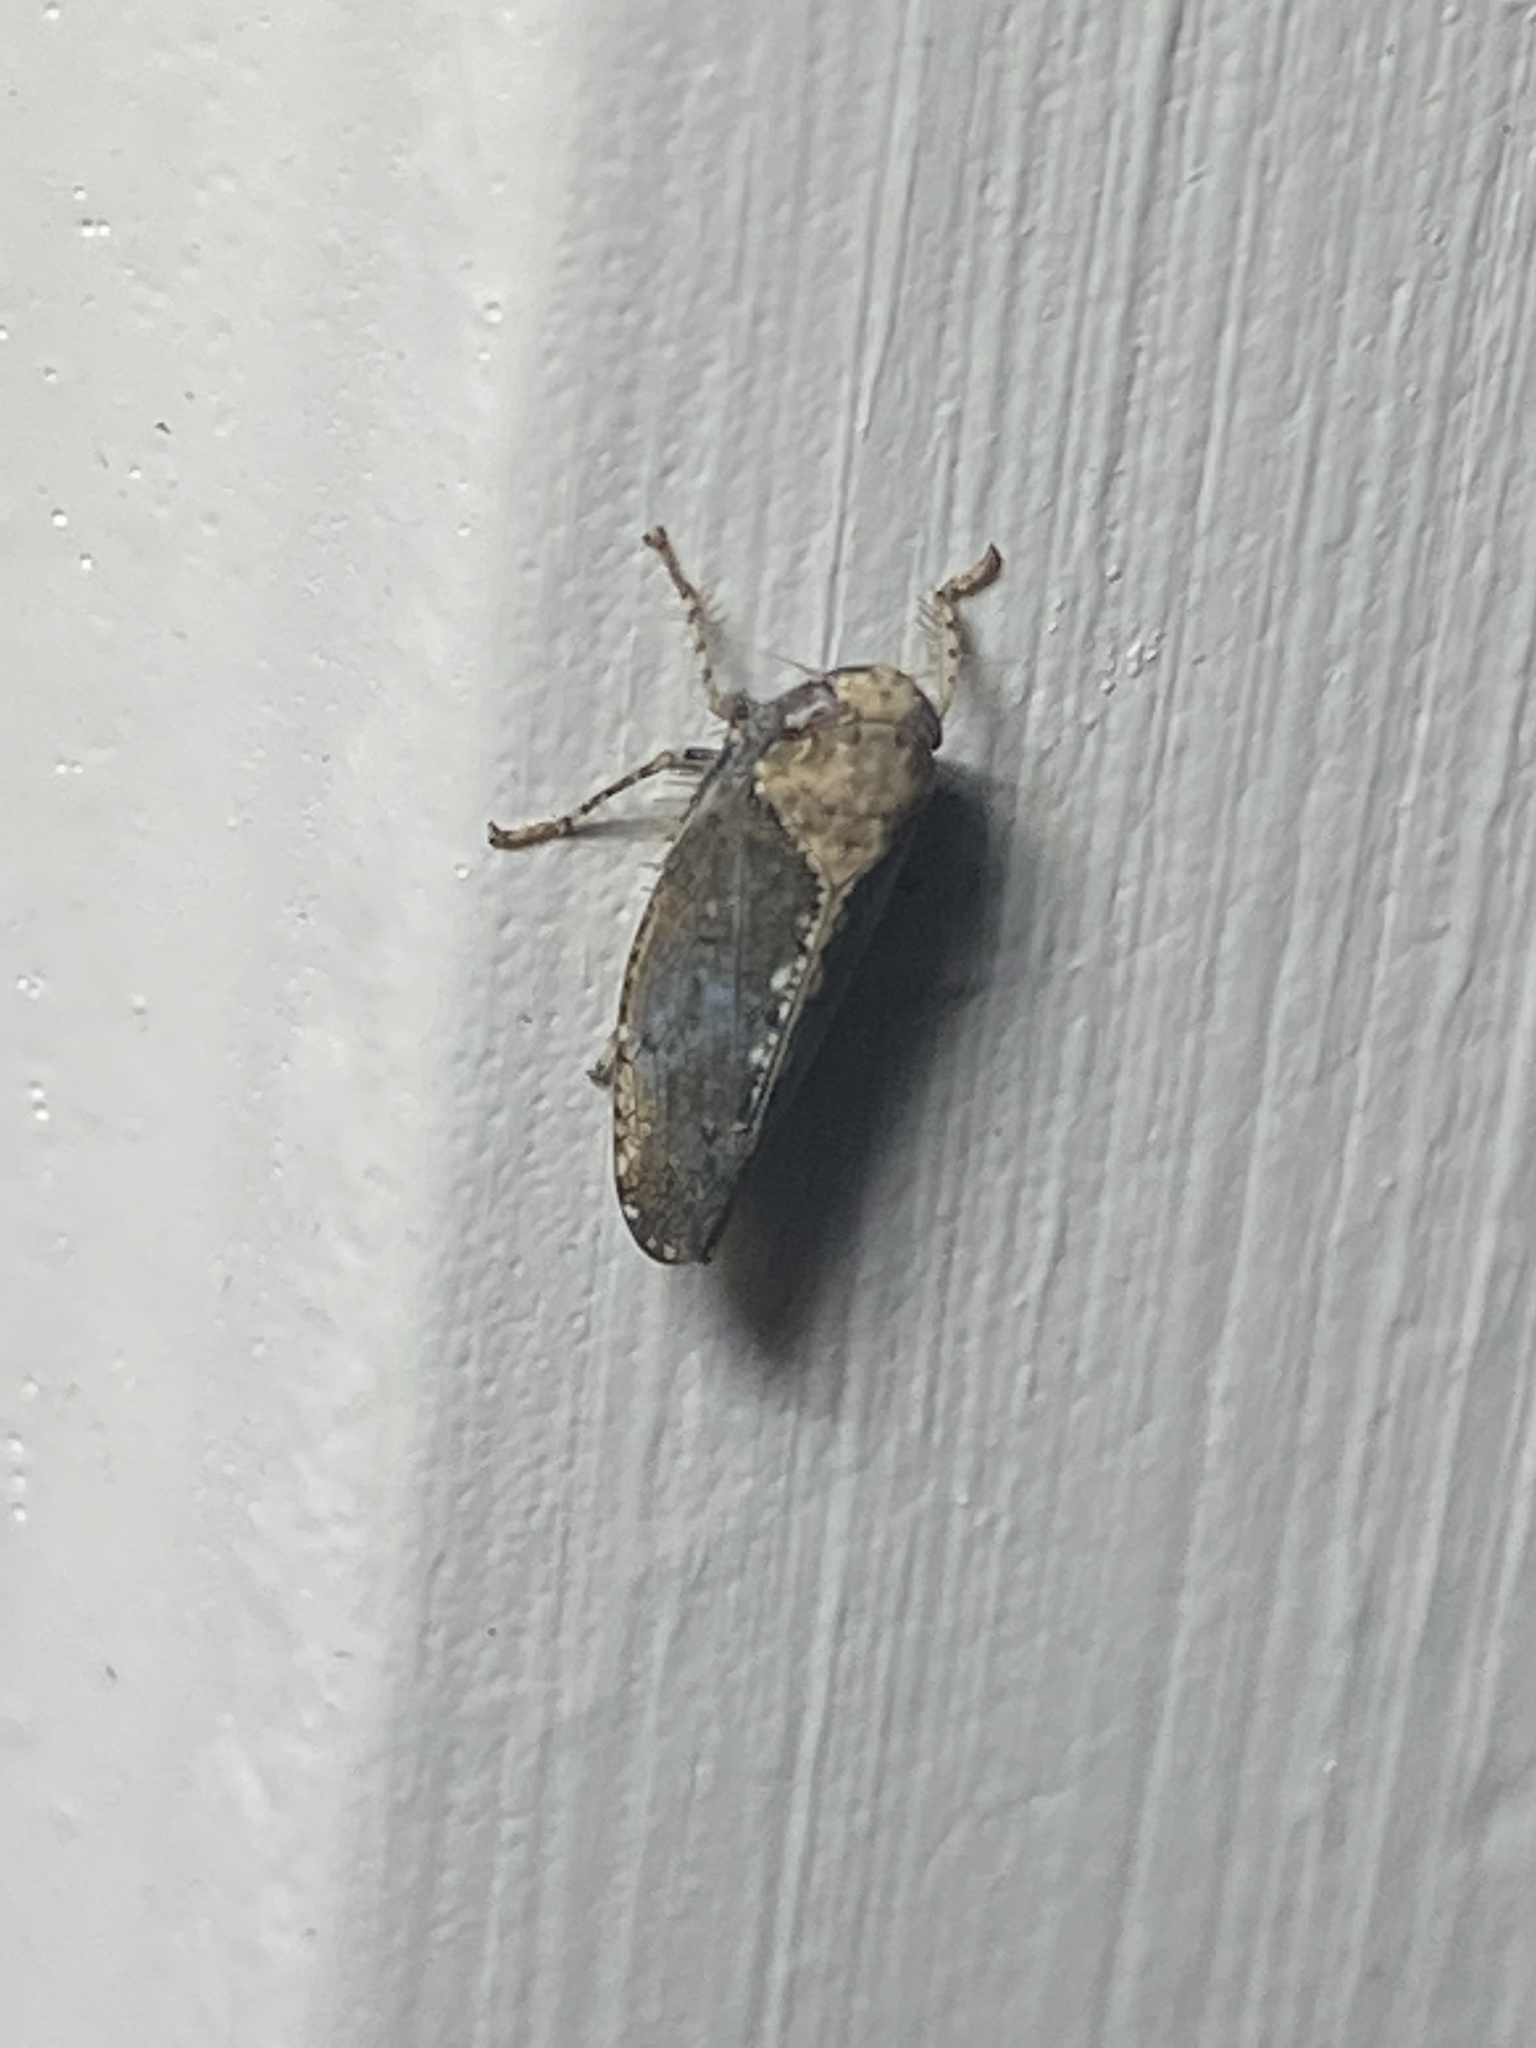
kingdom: Animalia
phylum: Arthropoda
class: Insecta
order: Hemiptera
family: Cicadellidae
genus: Excultanus
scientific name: Excultanus excultus
